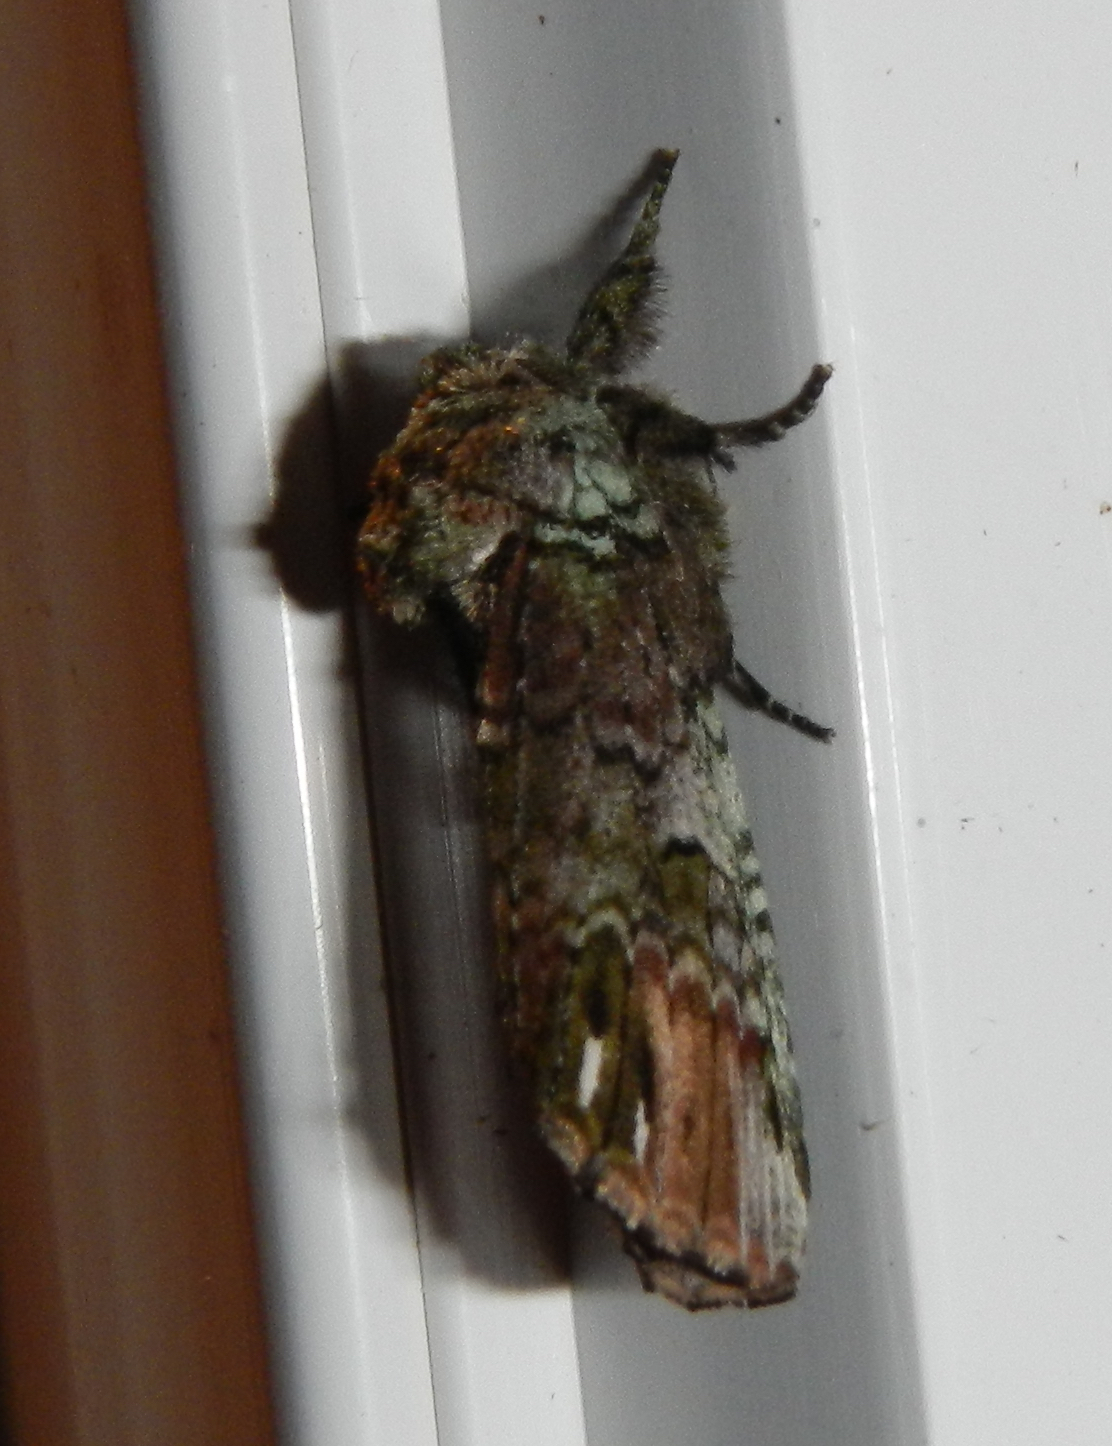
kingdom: Animalia
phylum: Arthropoda
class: Insecta
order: Lepidoptera
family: Notodontidae
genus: Schizura
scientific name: Schizura
